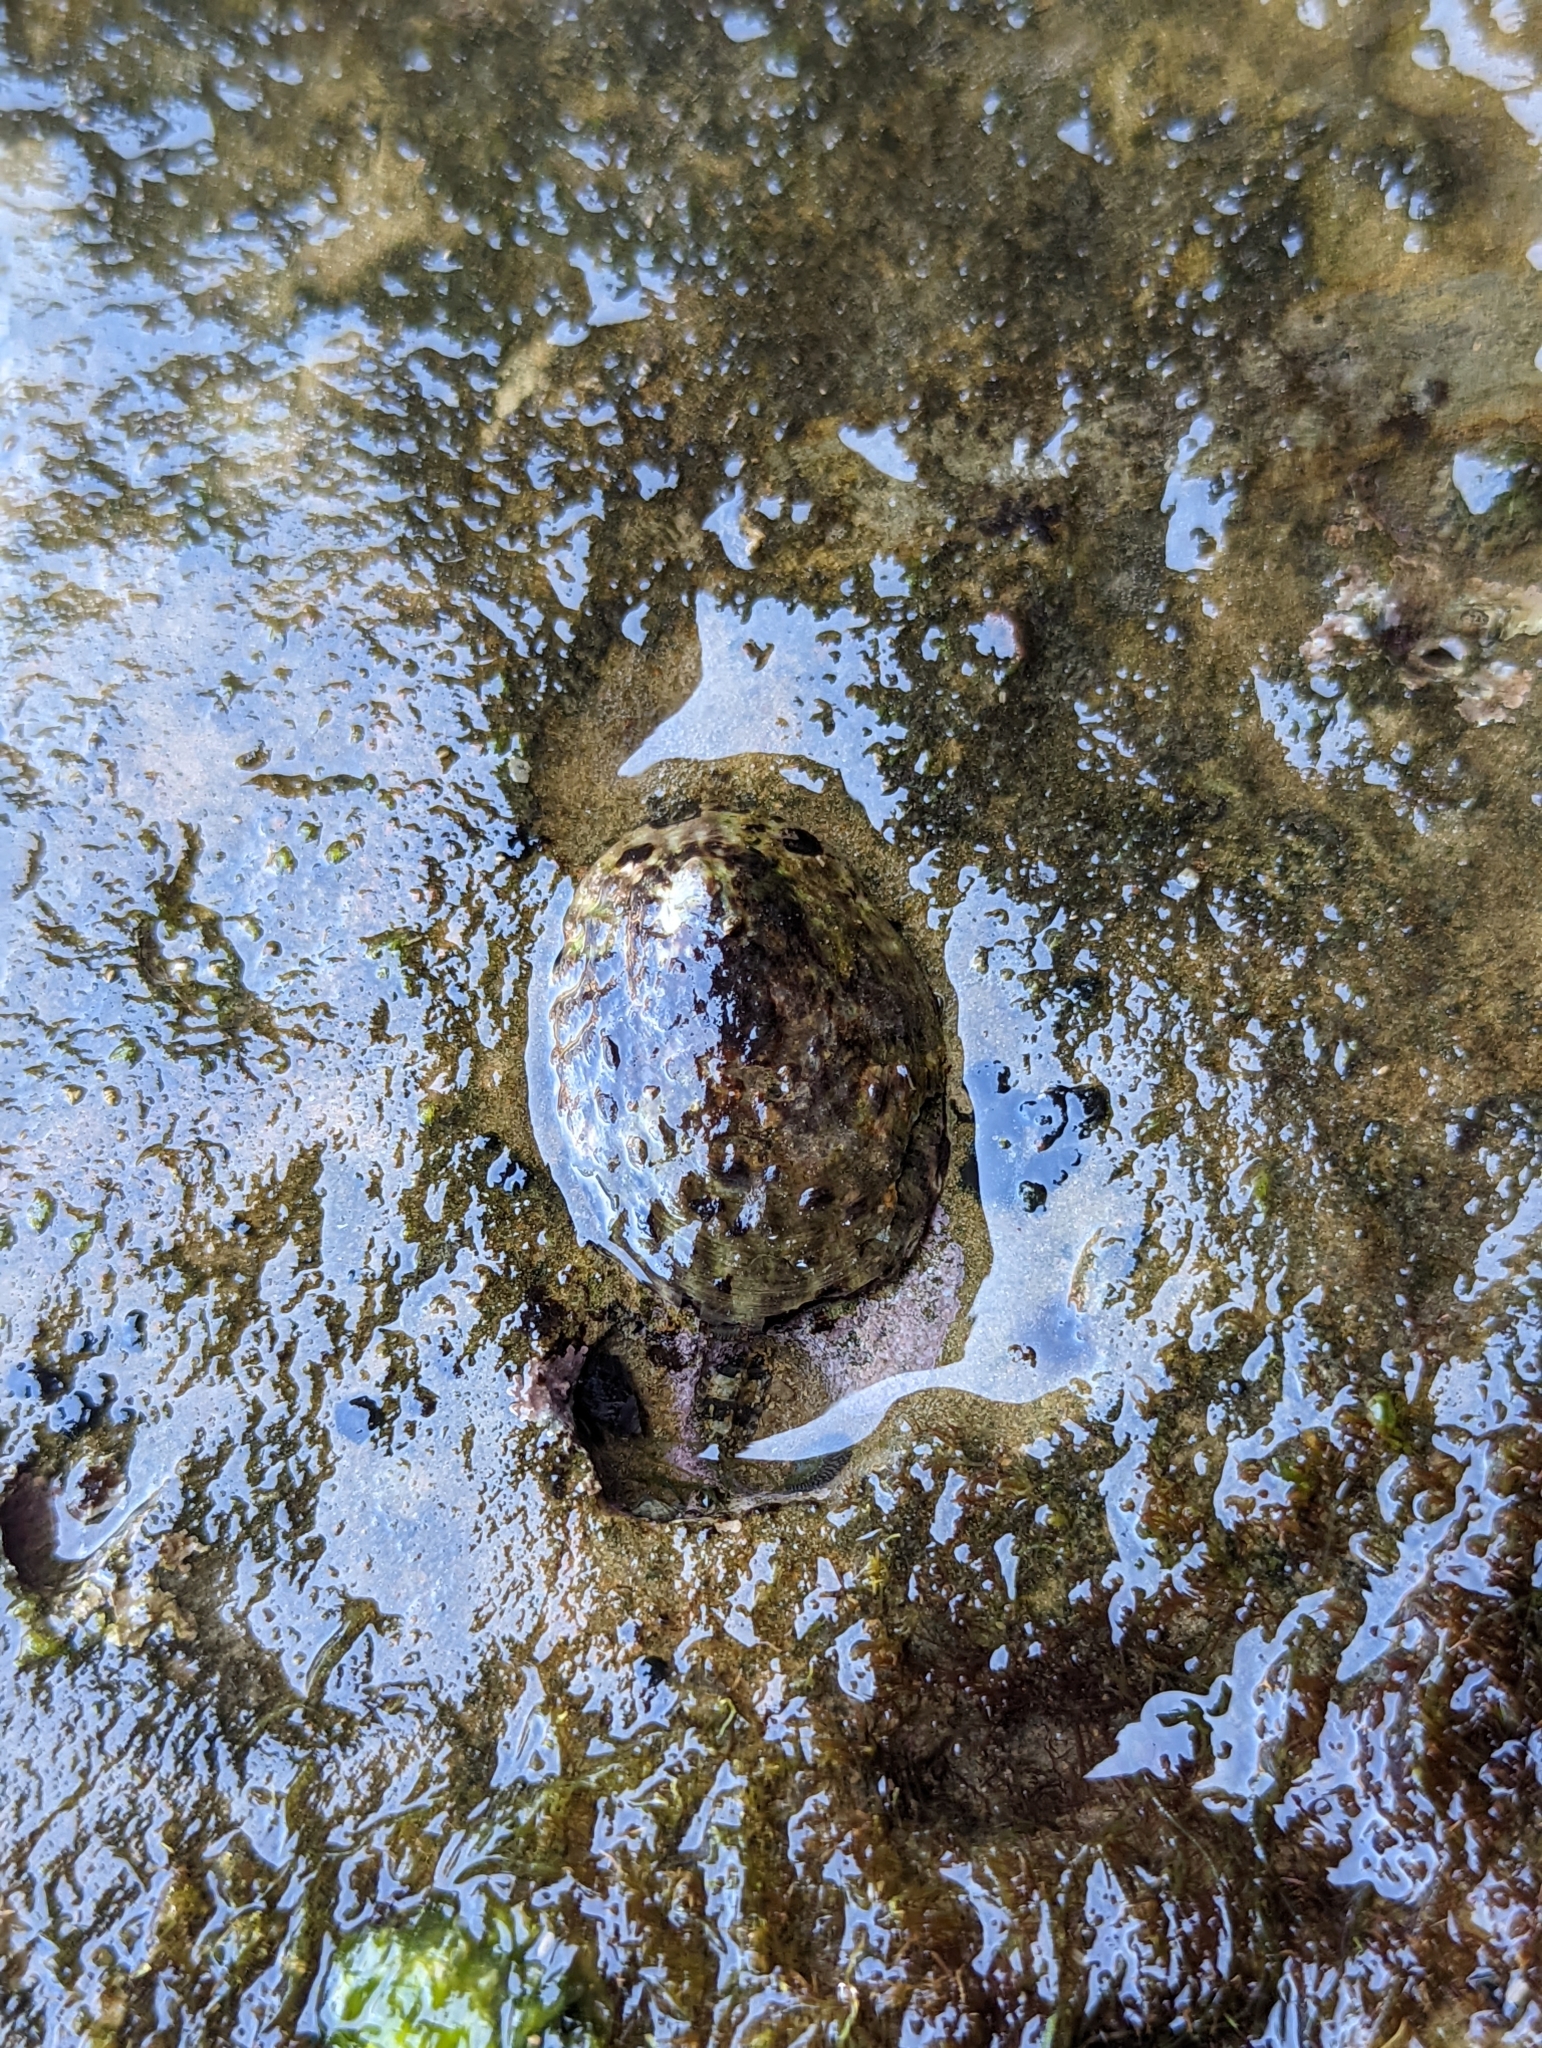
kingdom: Animalia
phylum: Mollusca
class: Gastropoda
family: Lottiidae
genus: Lottia
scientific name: Lottia gigantea
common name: Owl limpet
